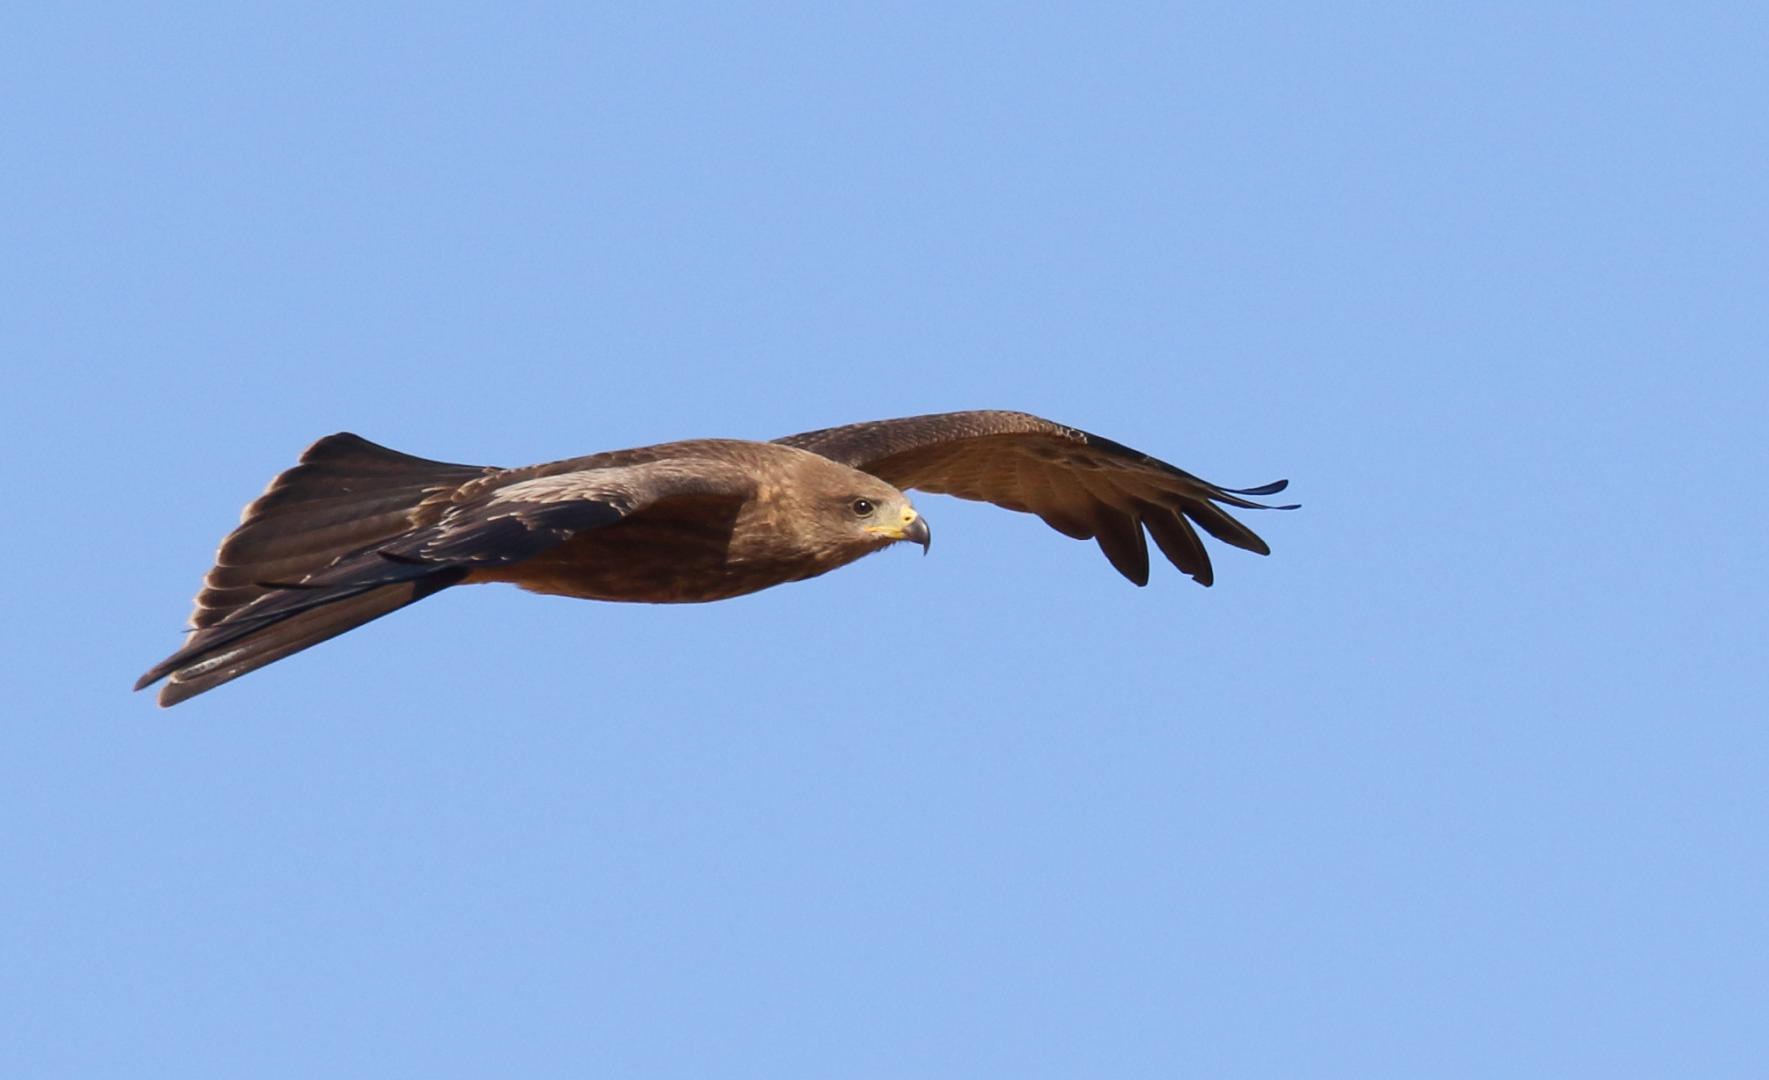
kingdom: Animalia
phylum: Chordata
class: Aves
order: Accipitriformes
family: Accipitridae
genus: Milvus
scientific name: Milvus migrans
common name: Black kite
